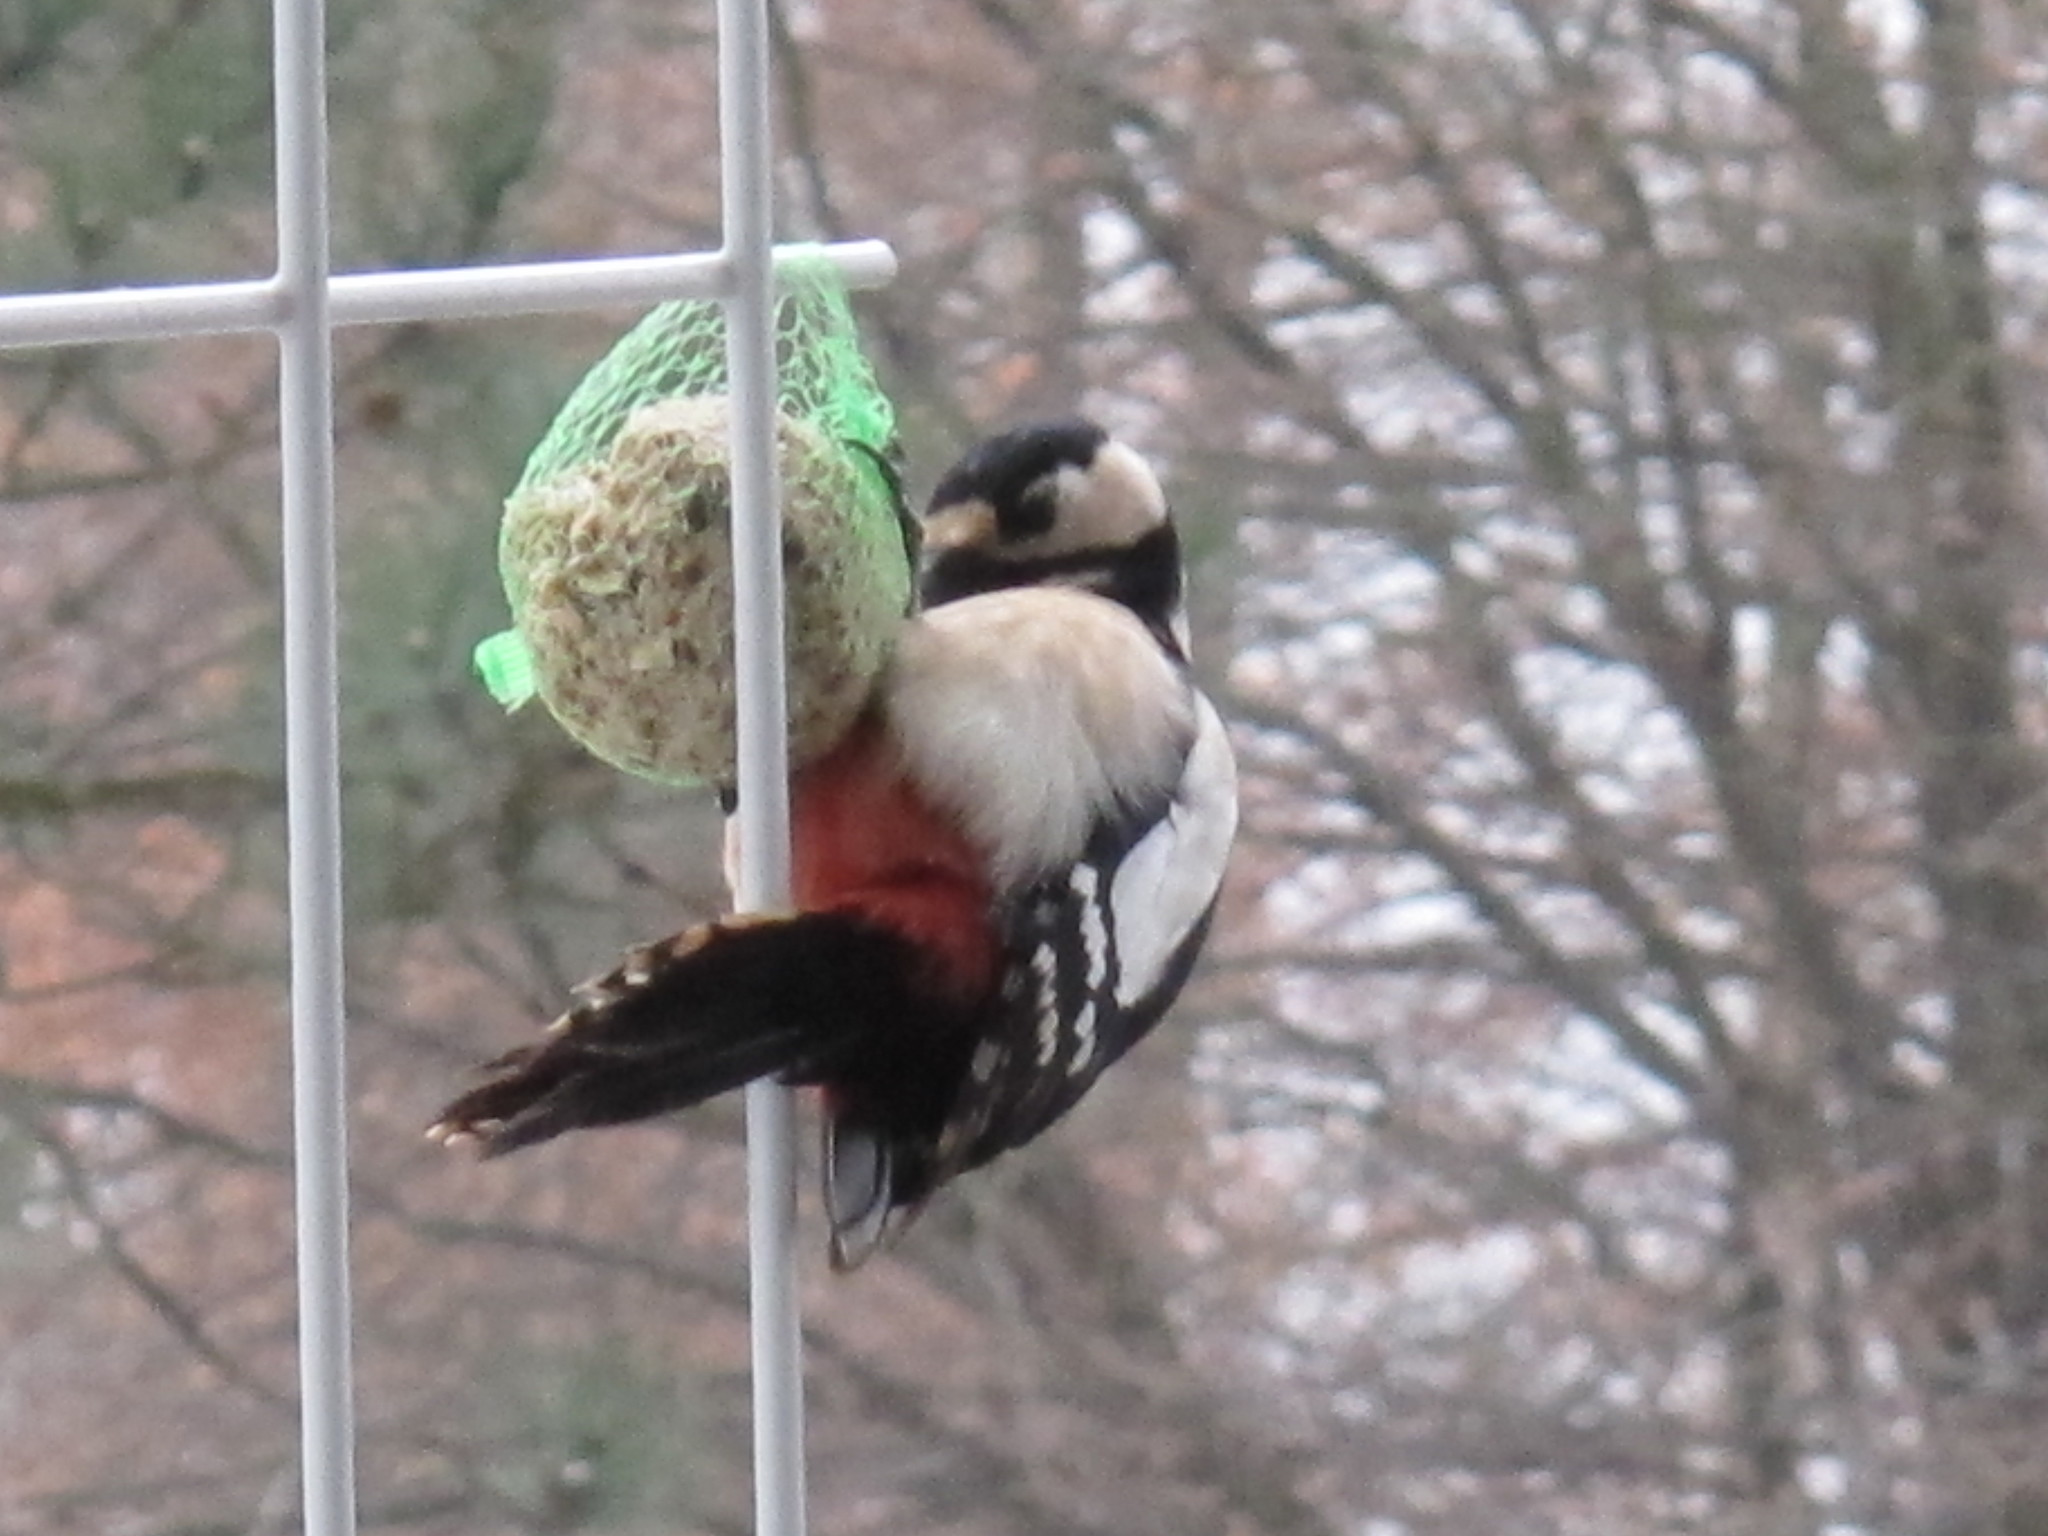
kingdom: Animalia
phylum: Chordata
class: Aves
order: Piciformes
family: Picidae
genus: Dendrocopos
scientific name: Dendrocopos major
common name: Great spotted woodpecker
